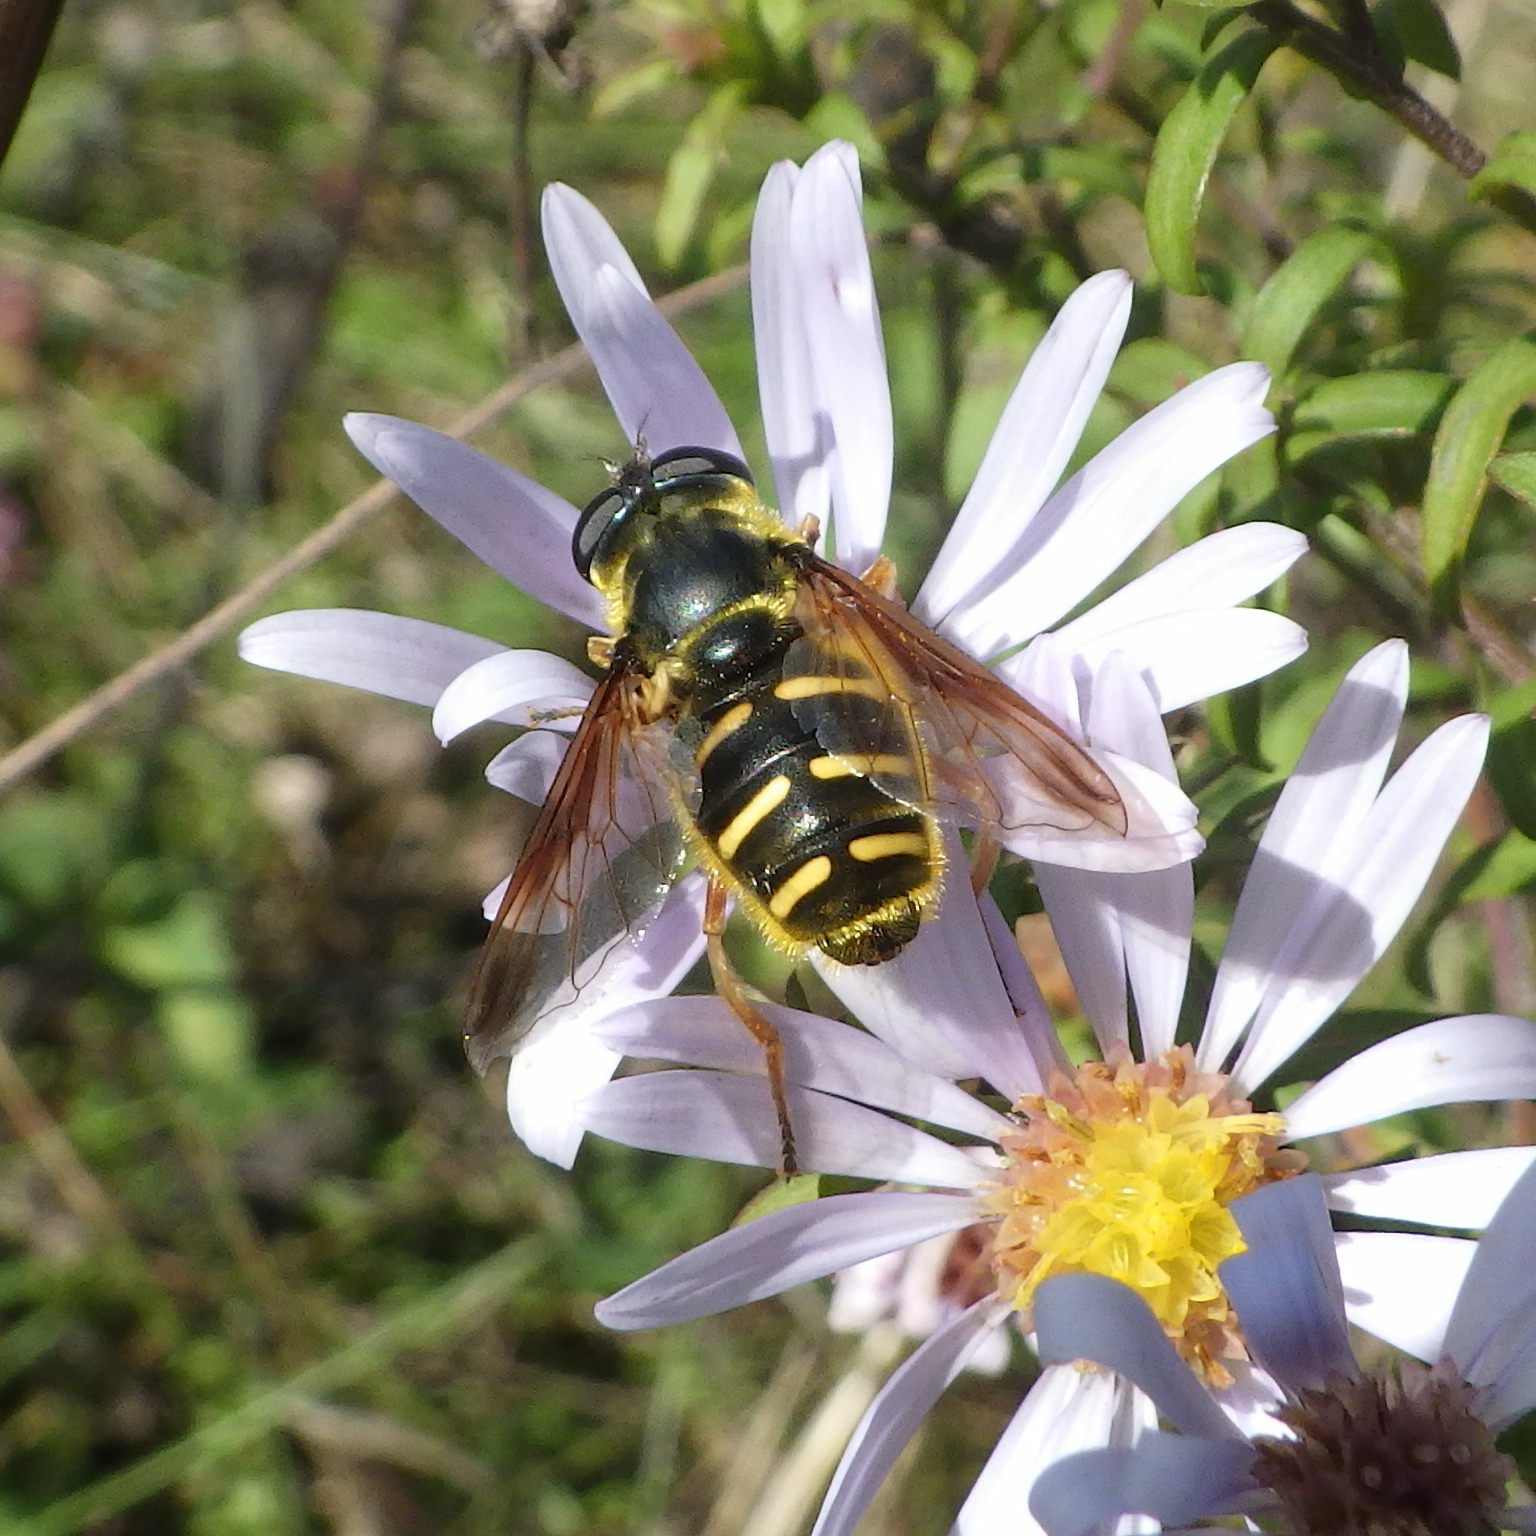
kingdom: Animalia
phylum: Arthropoda
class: Insecta
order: Diptera
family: Syrphidae
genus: Sericomyia
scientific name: Sericomyia chrysotoxoides
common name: Oblique-banded pond fly
